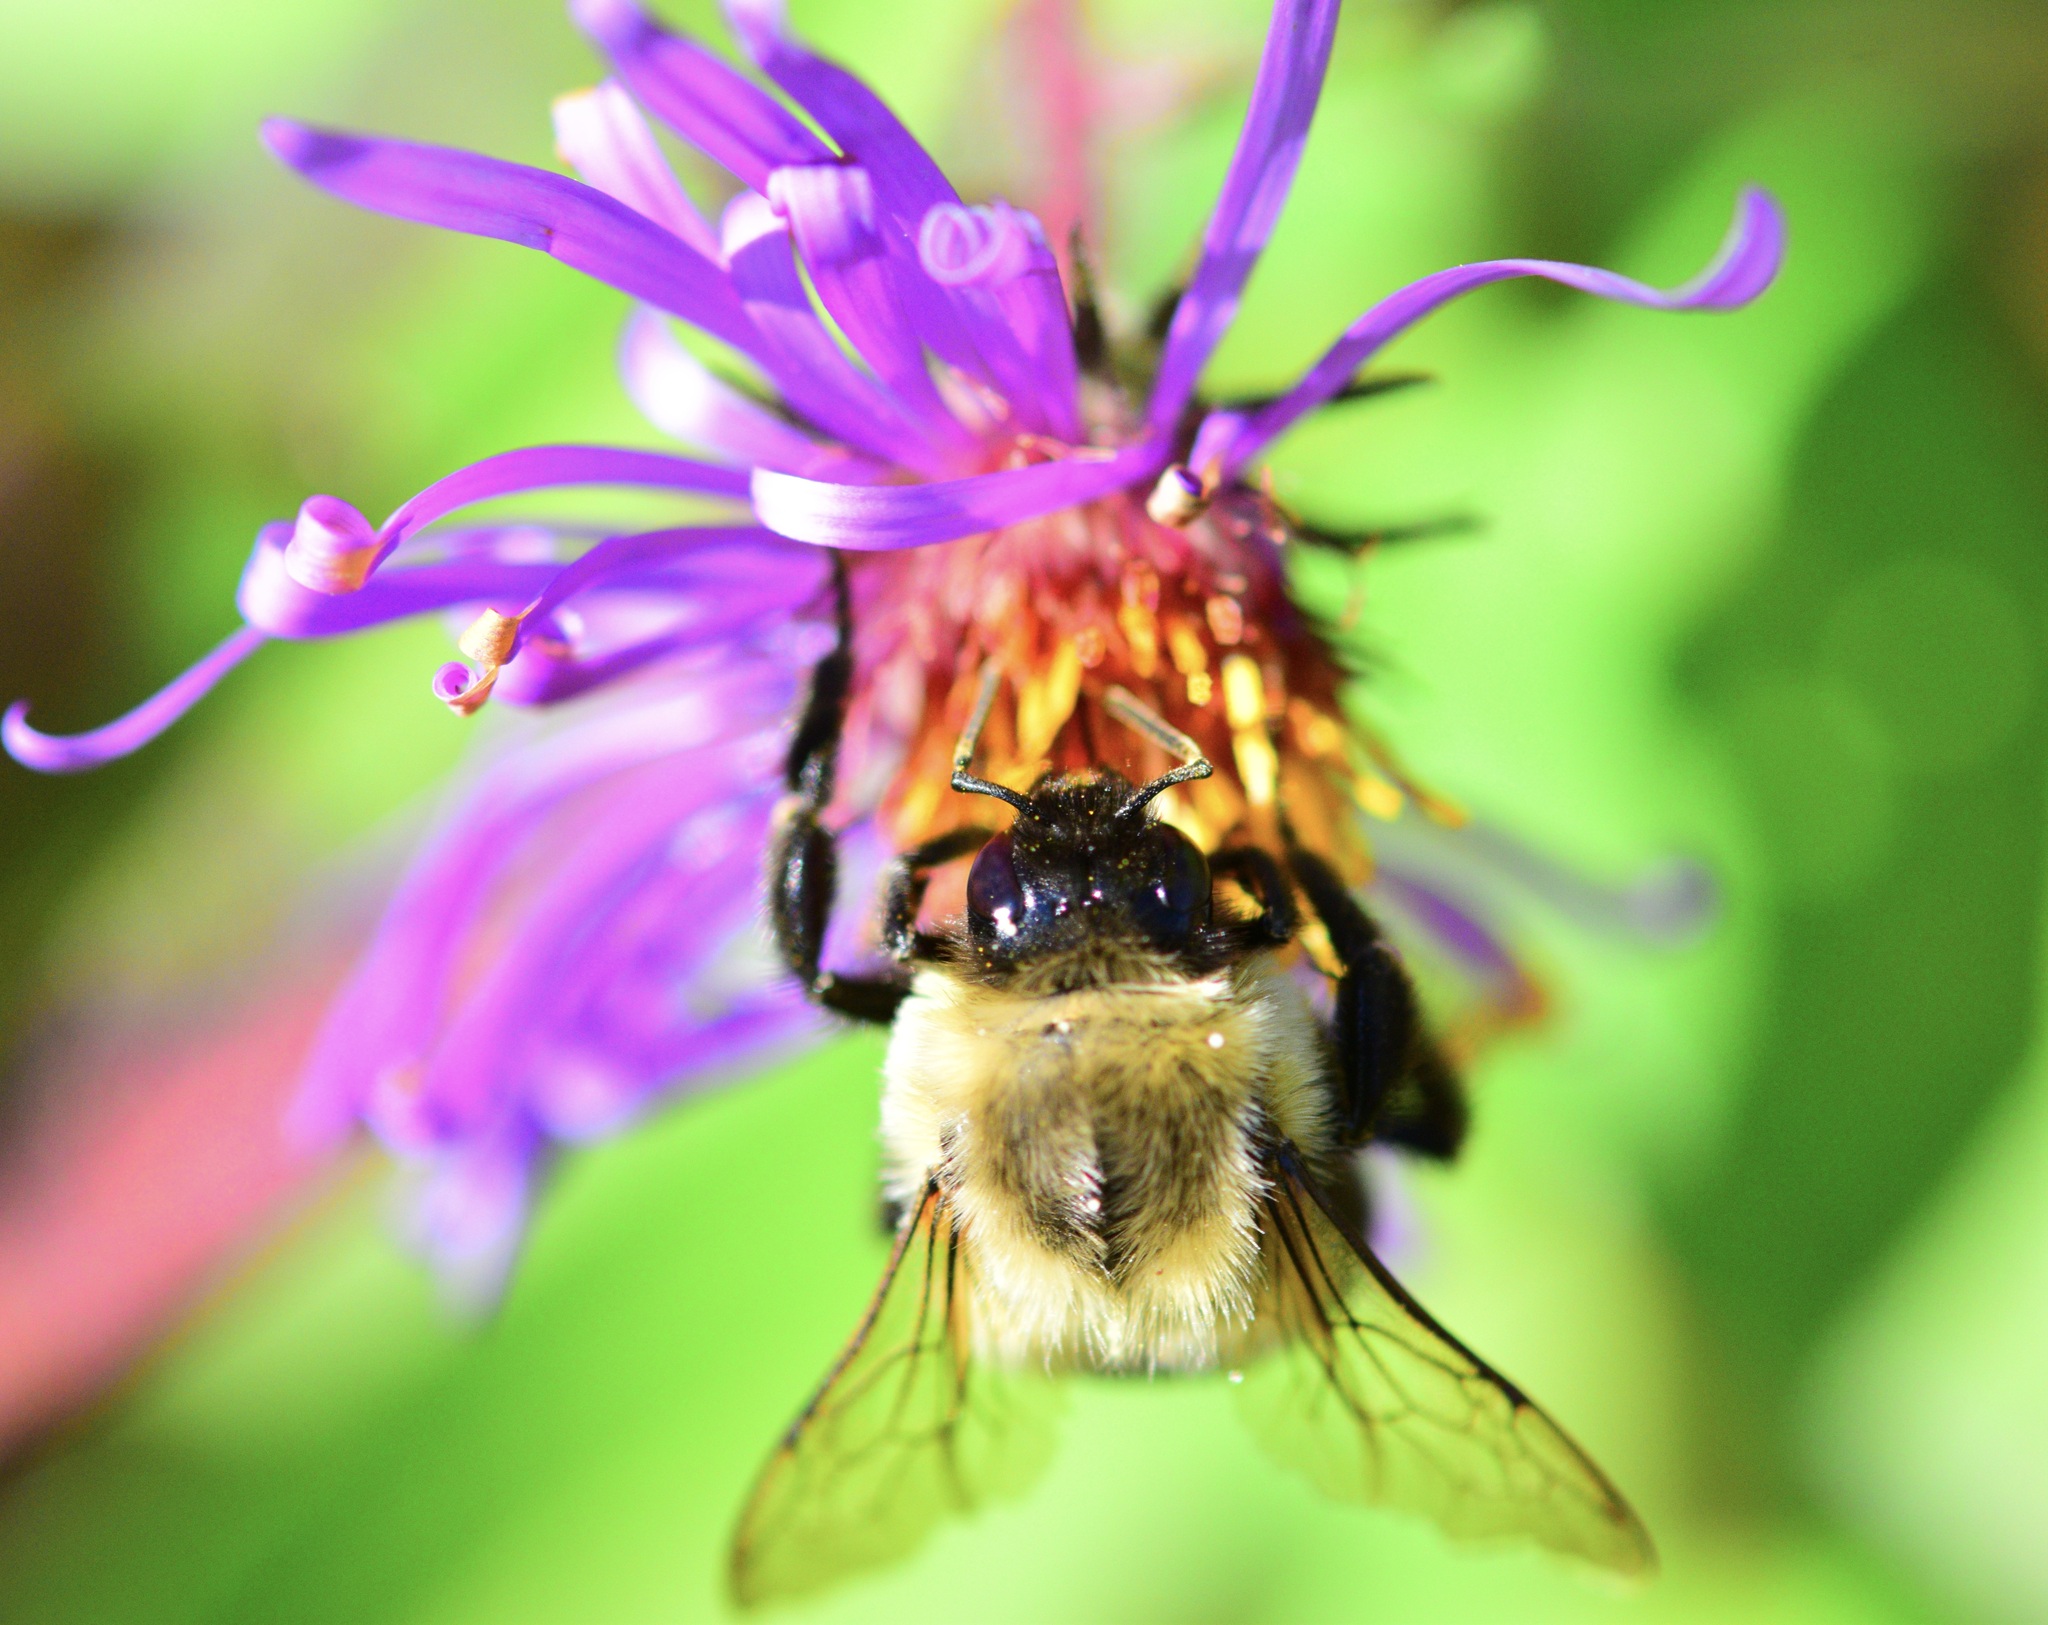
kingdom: Animalia
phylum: Arthropoda
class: Insecta
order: Hymenoptera
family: Apidae
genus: Bombus
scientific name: Bombus impatiens
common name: Common eastern bumble bee
